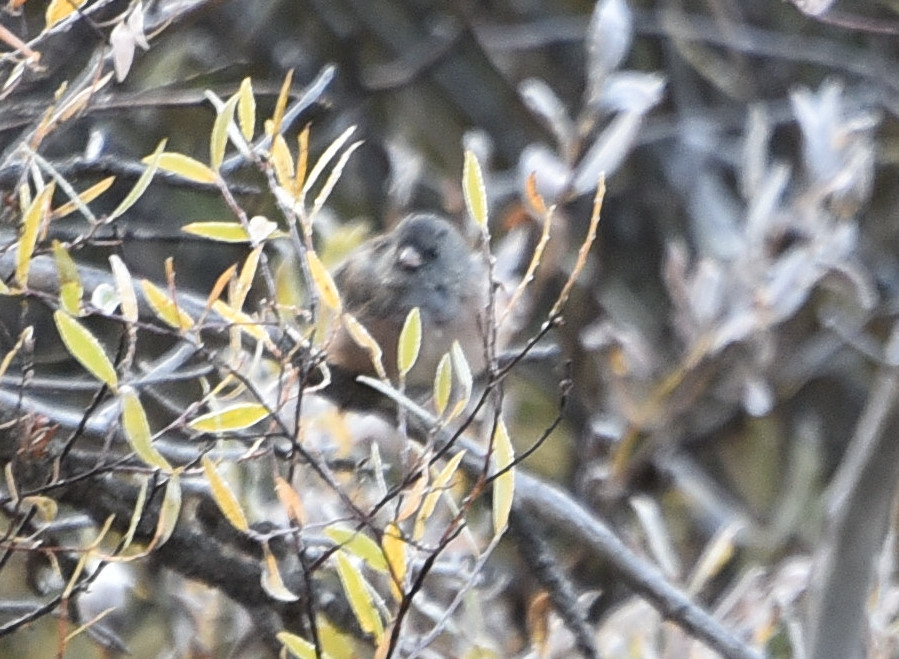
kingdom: Animalia
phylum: Chordata
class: Aves
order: Passeriformes
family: Passerellidae
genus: Junco
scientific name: Junco hyemalis
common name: Dark-eyed junco
